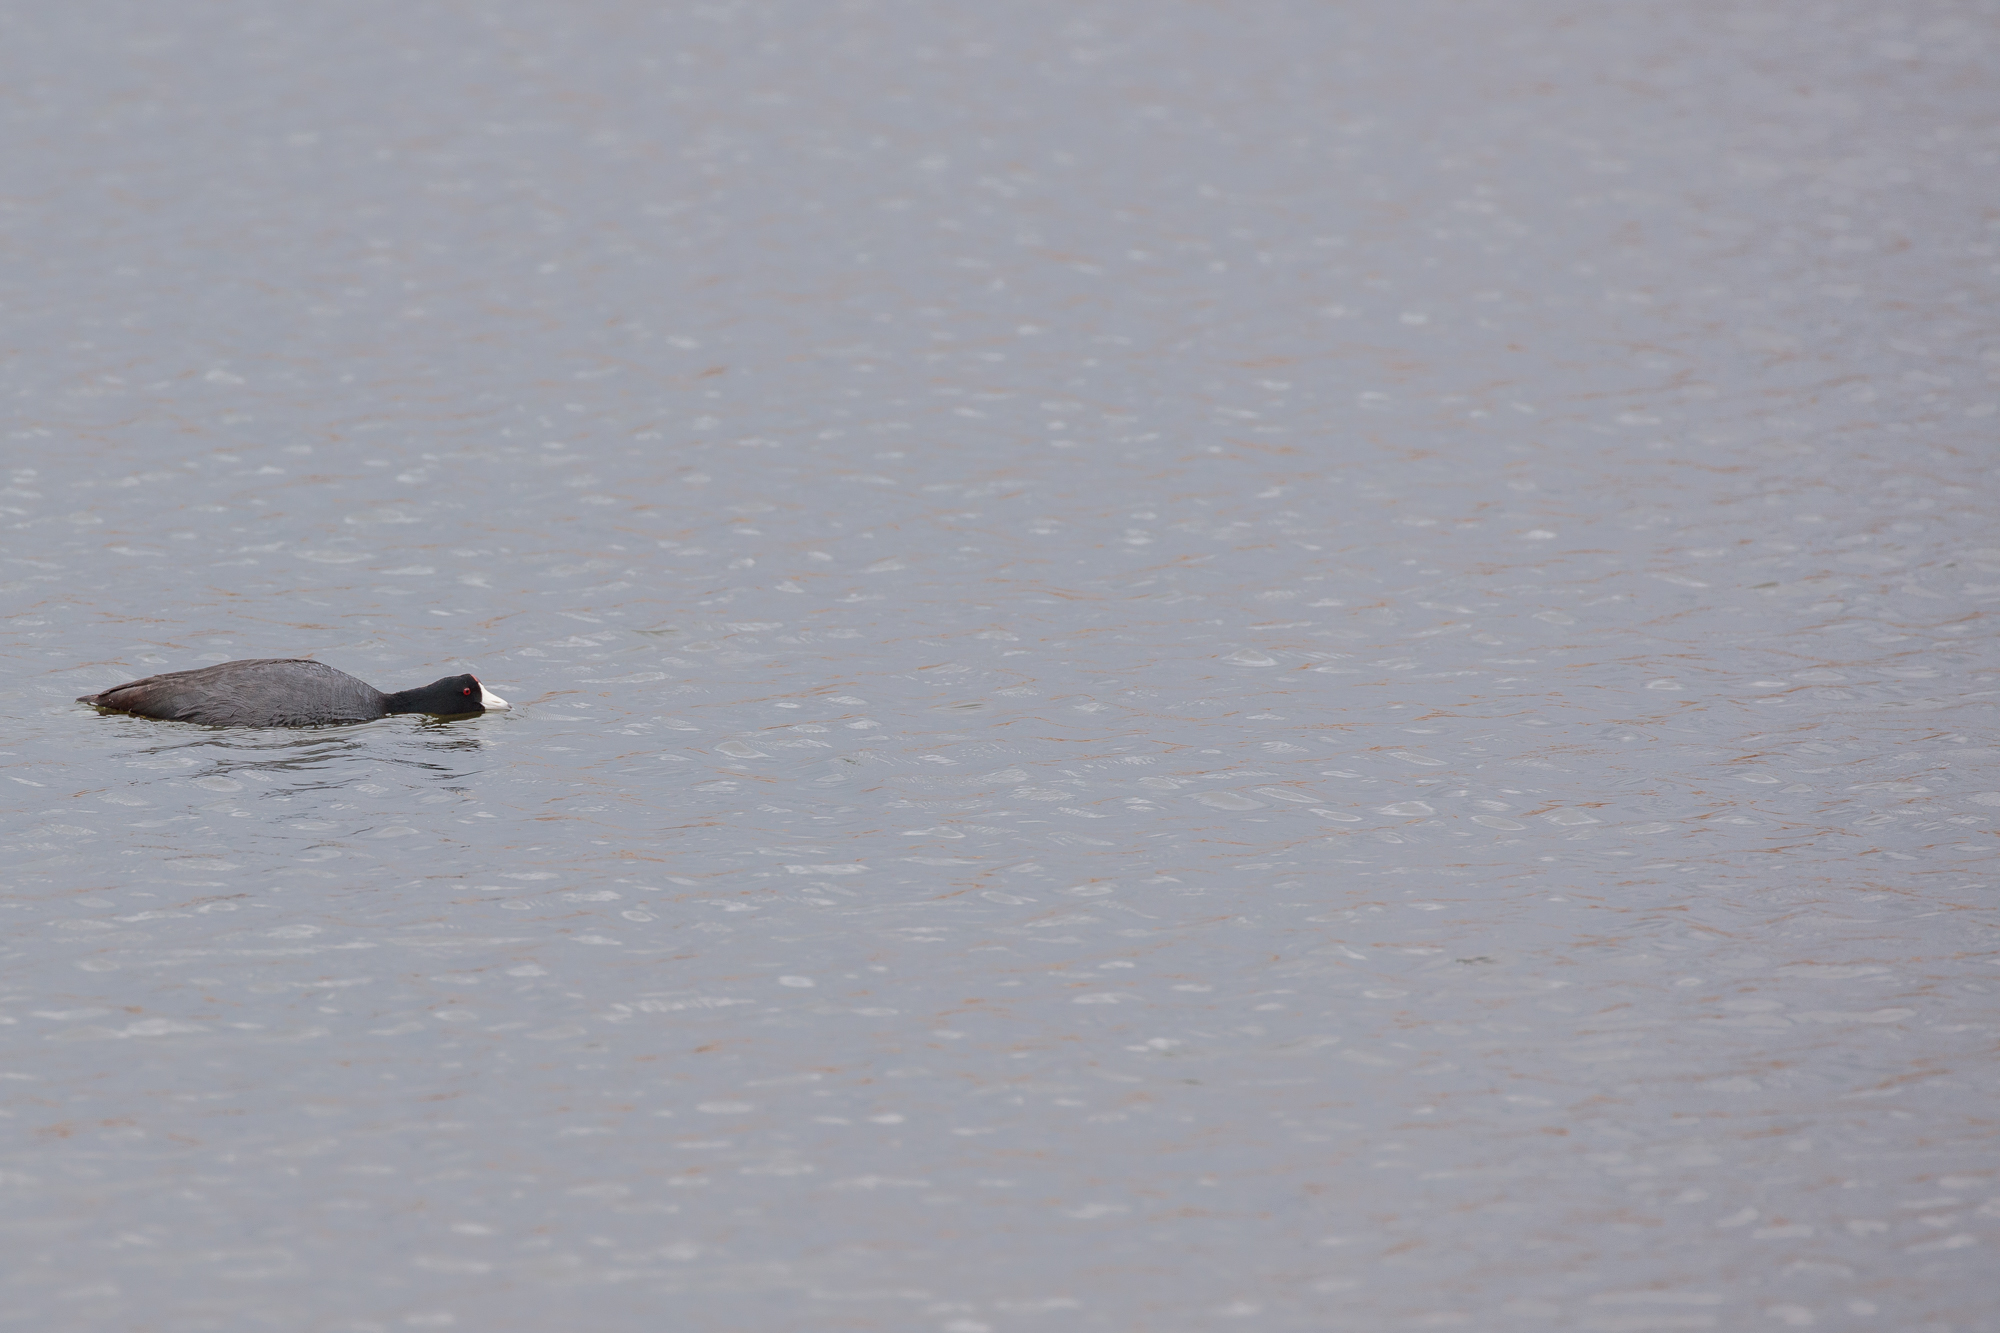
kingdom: Animalia
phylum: Chordata
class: Aves
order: Gruiformes
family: Rallidae
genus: Fulica
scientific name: Fulica americana
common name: American coot
